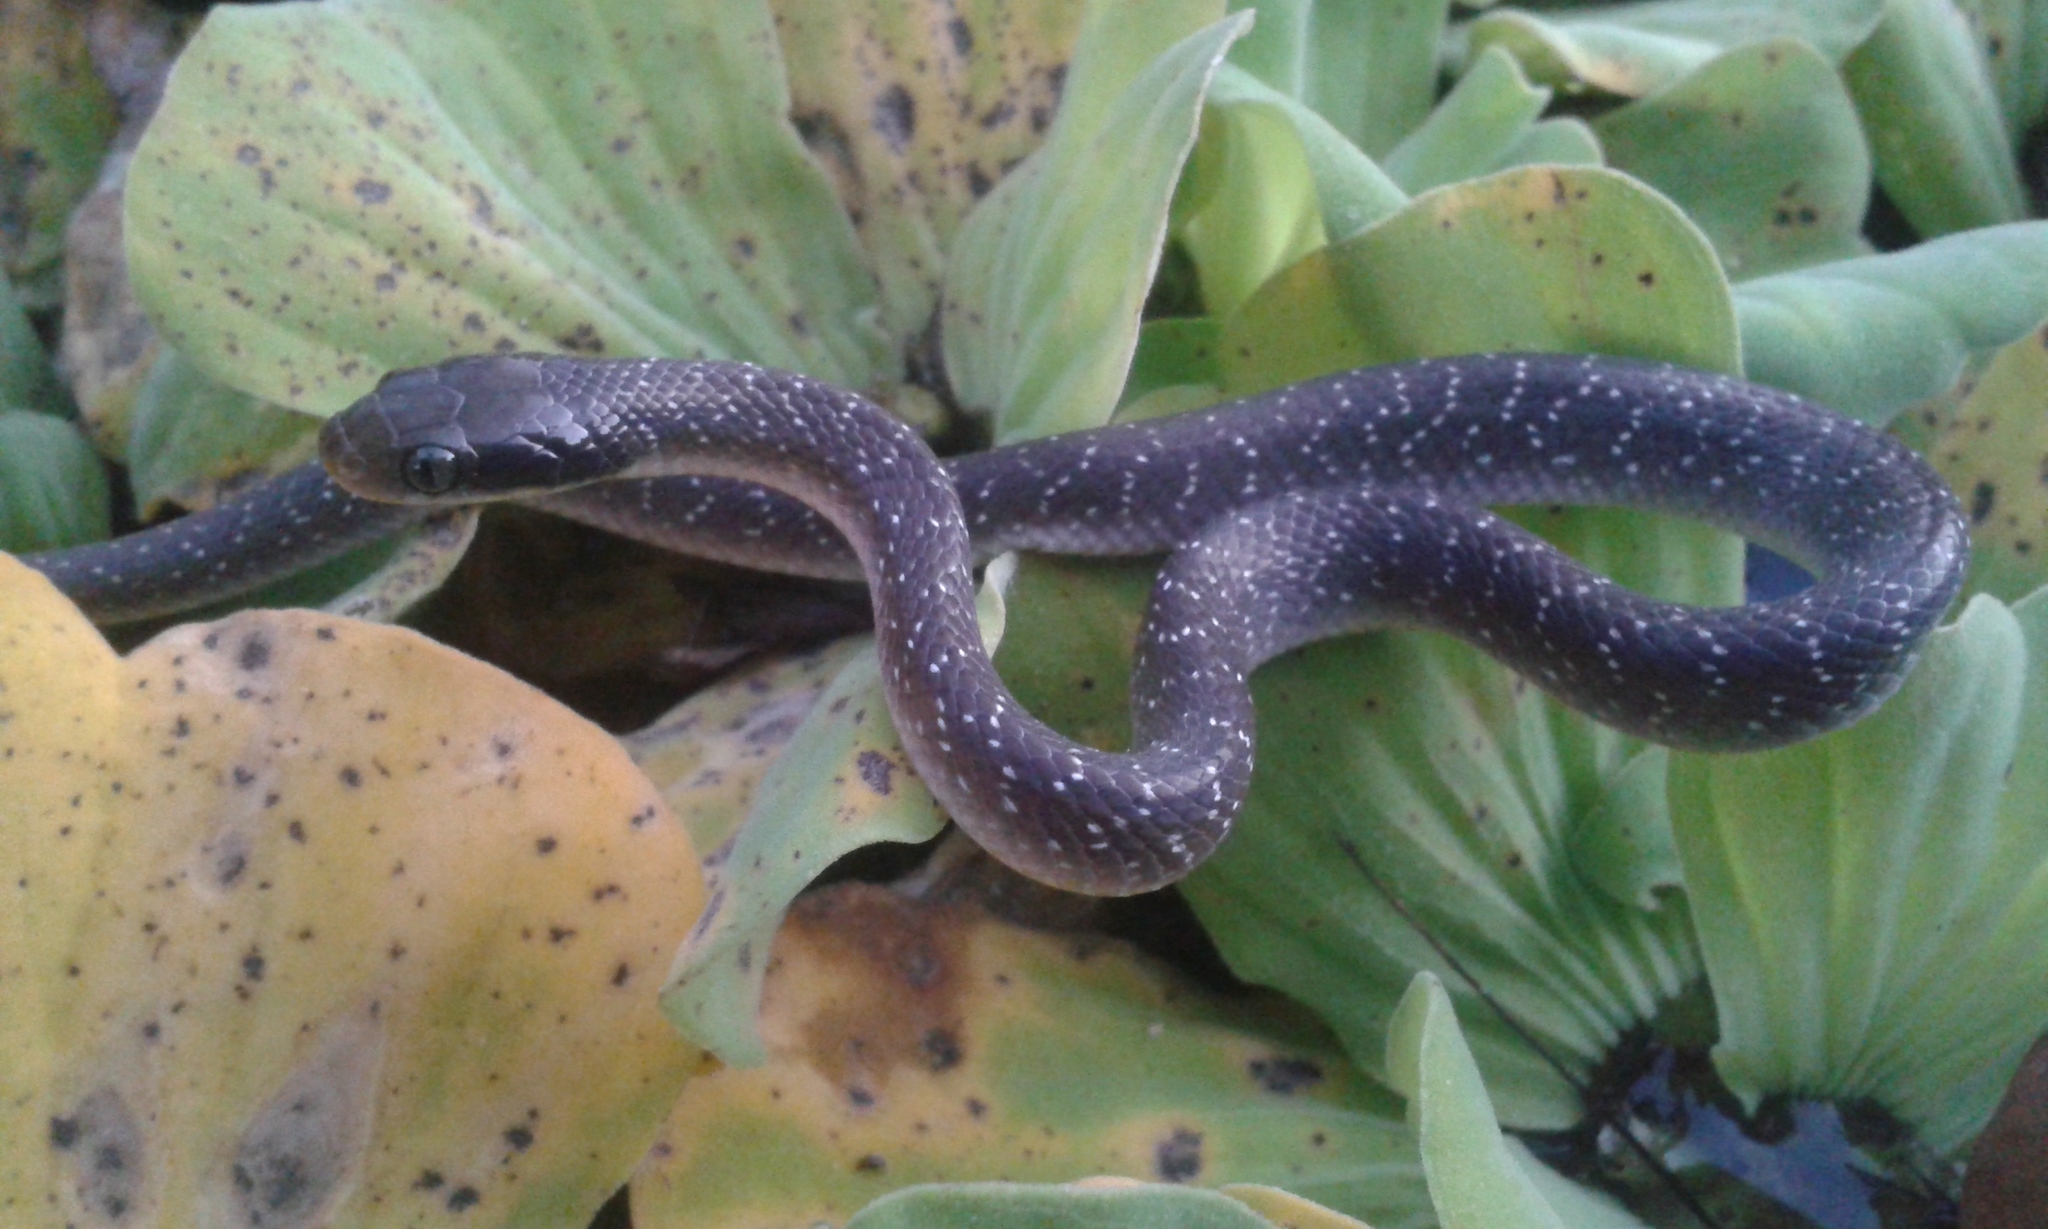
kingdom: Animalia
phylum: Chordata
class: Squamata
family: Colubridae
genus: Crotaphopeltis
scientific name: Crotaphopeltis hotamboeia
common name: Red-lipped snake
